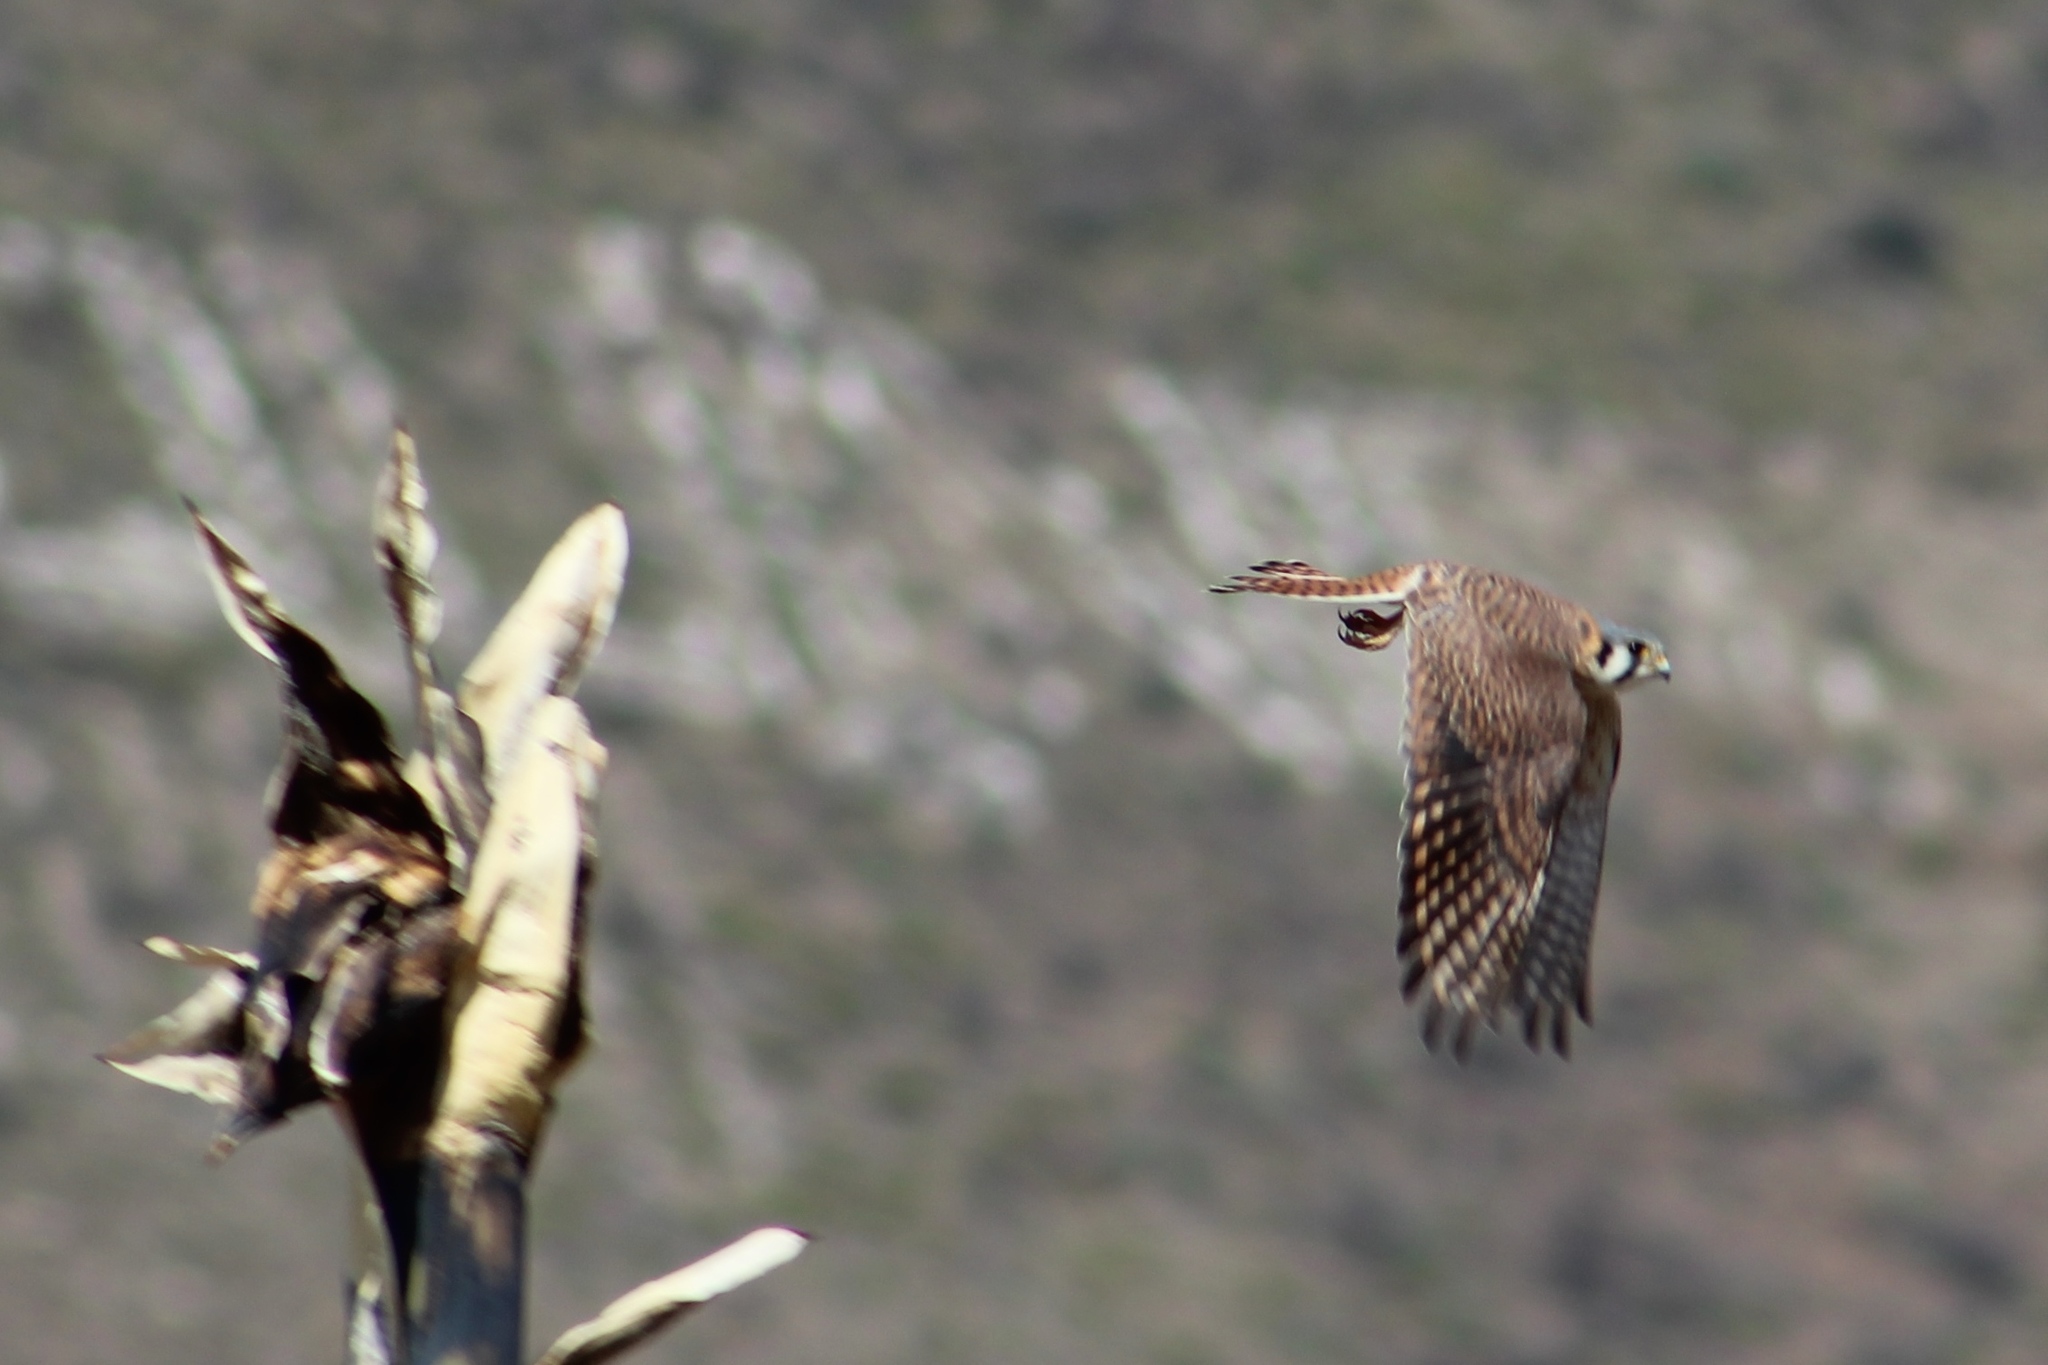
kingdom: Animalia
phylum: Chordata
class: Aves
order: Falconiformes
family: Falconidae
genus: Falco
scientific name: Falco sparverius
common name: American kestrel
